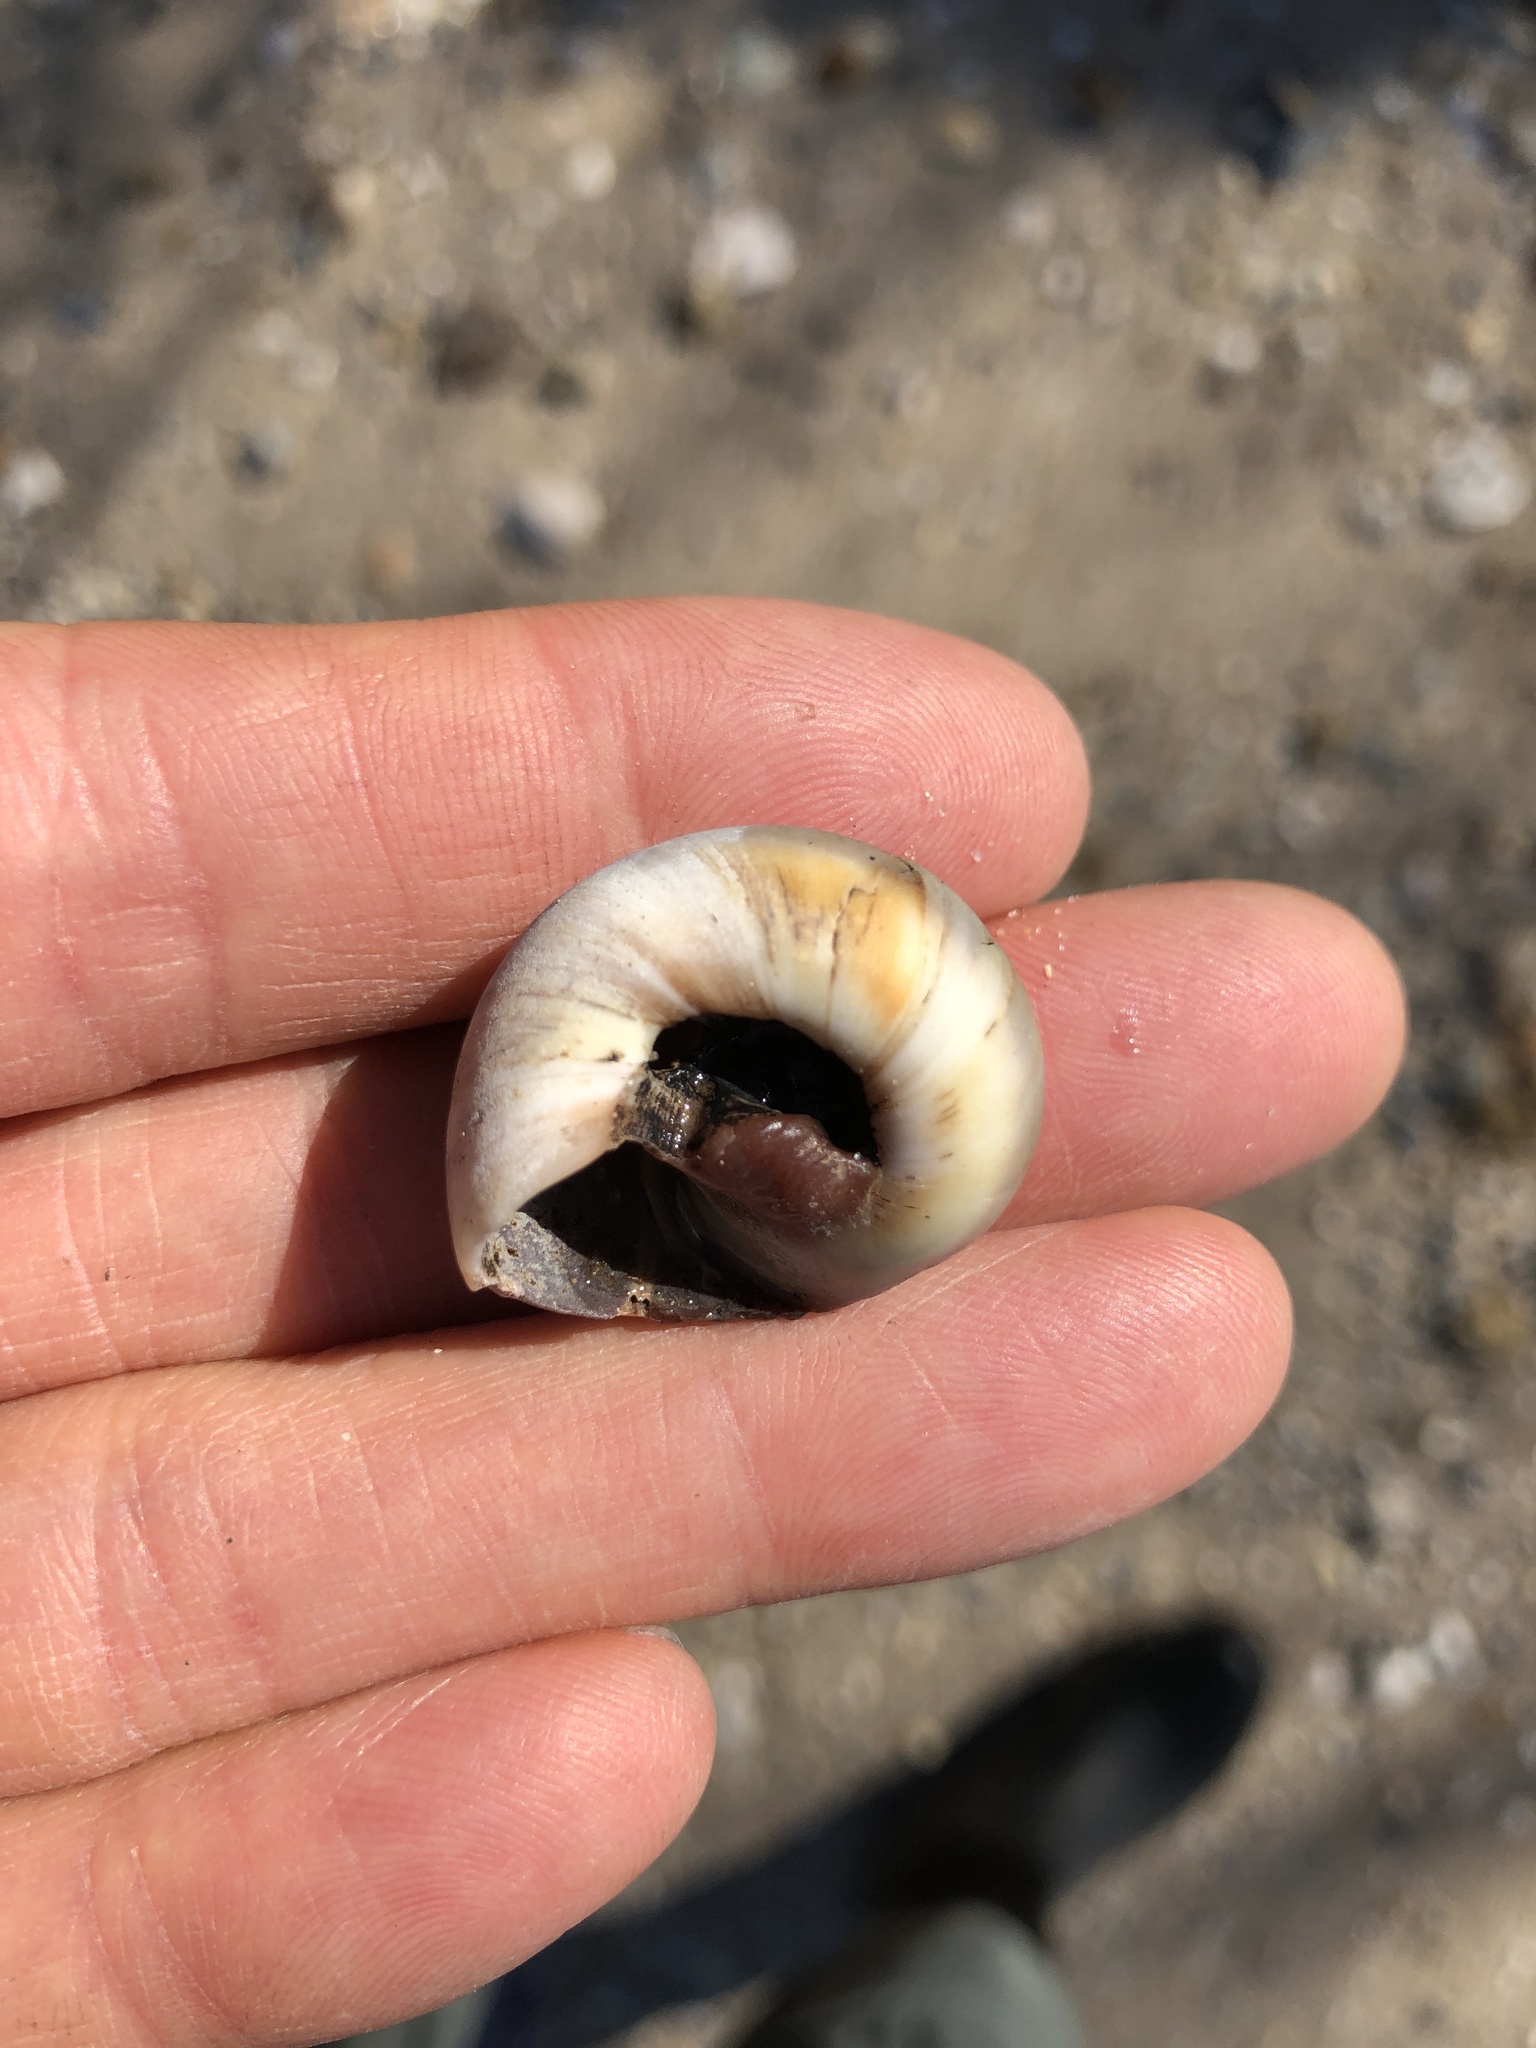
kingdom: Animalia
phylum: Mollusca
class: Gastropoda
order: Littorinimorpha
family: Naticidae
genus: Neverita
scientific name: Neverita delessertiana
